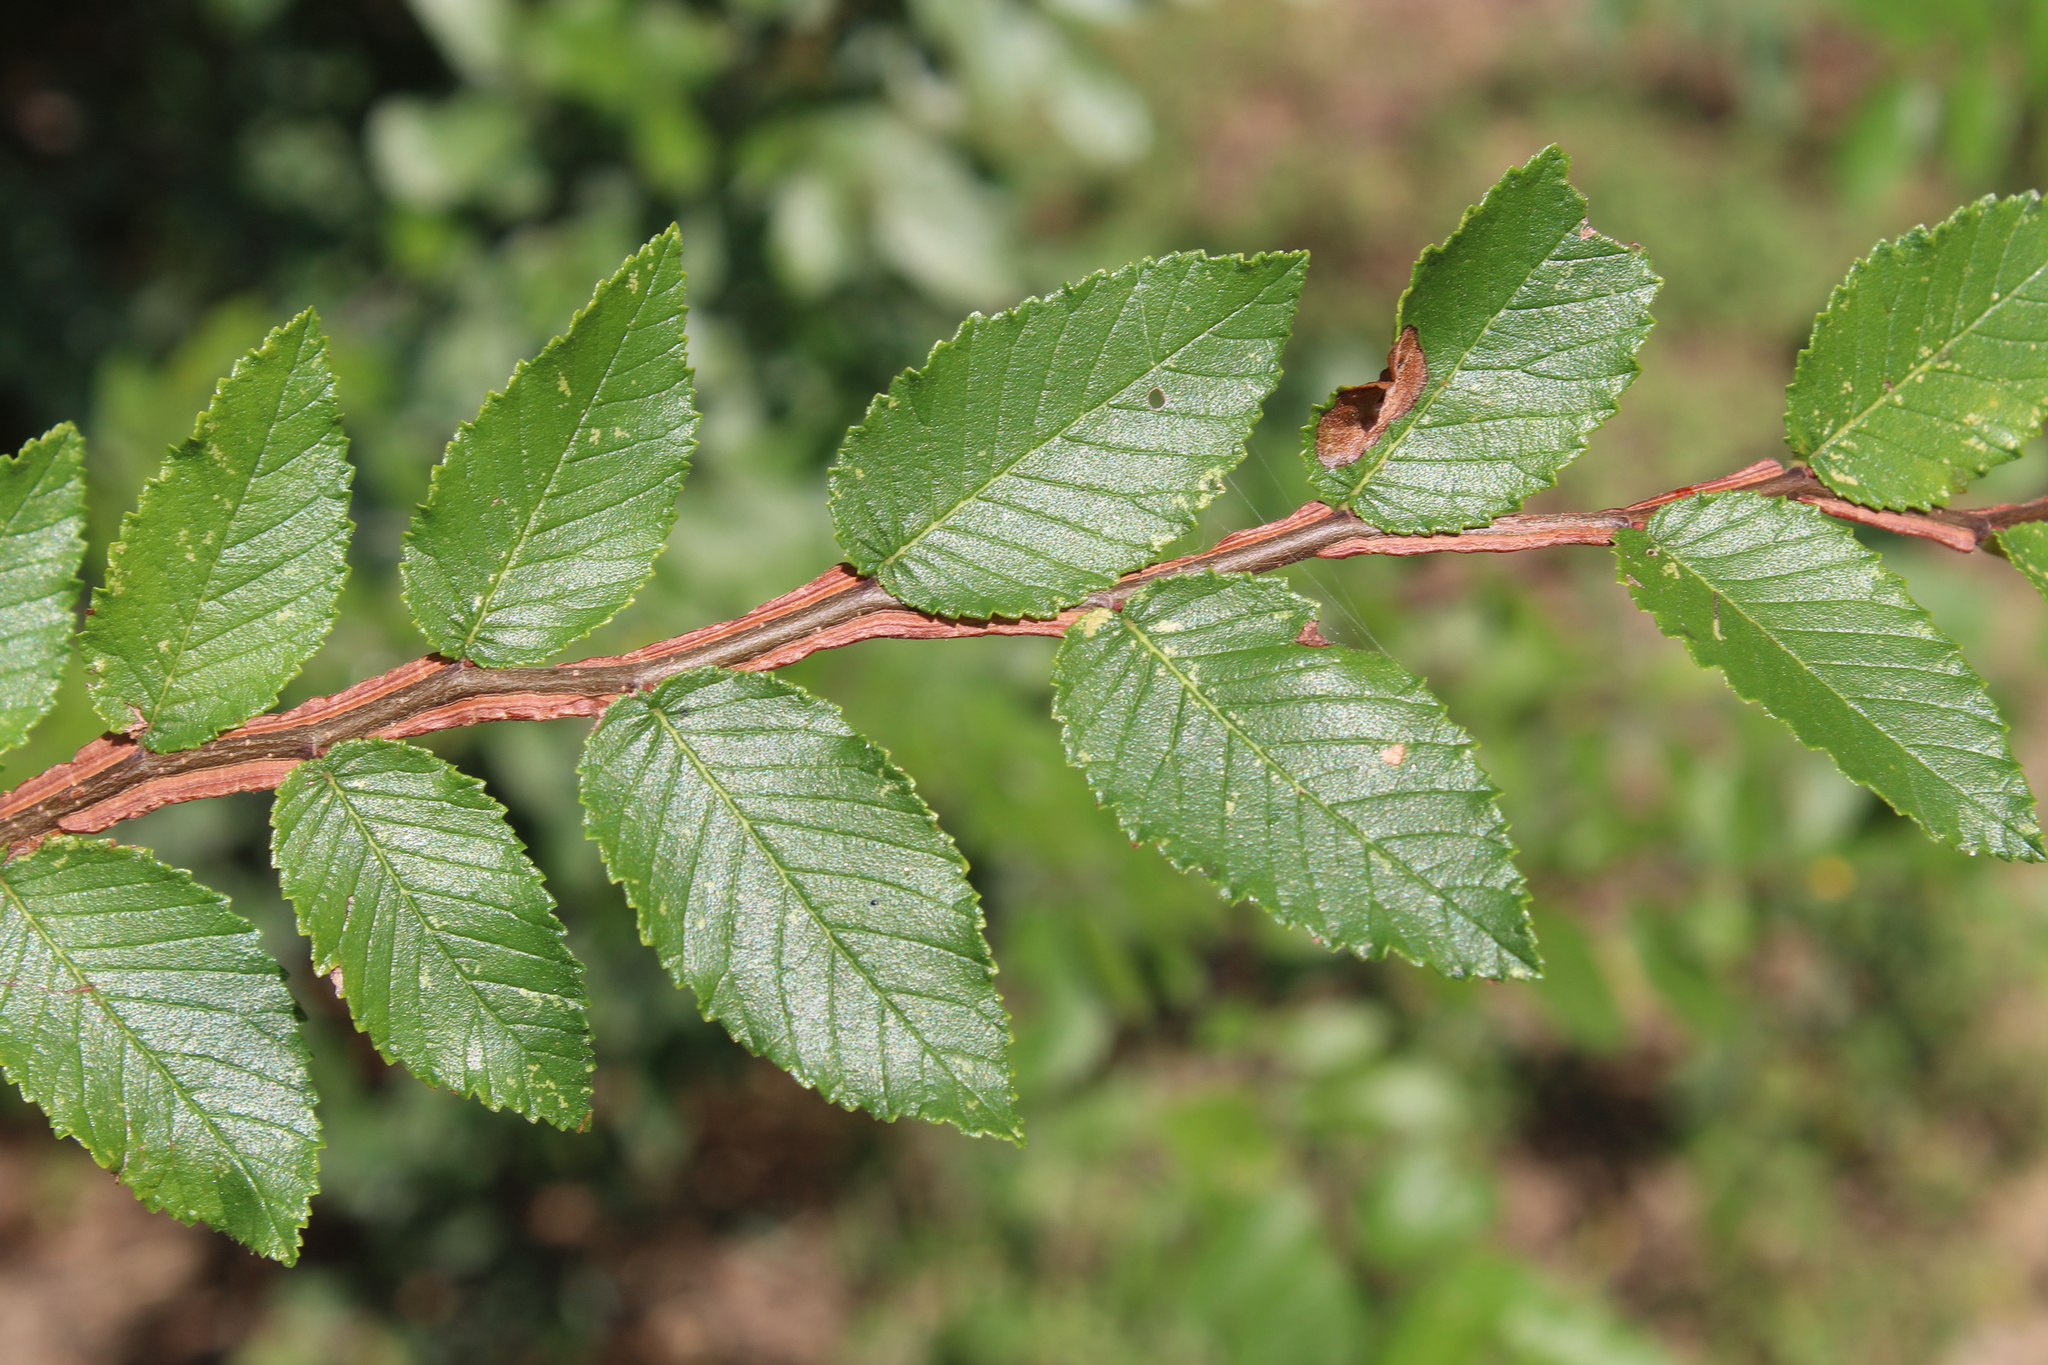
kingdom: Plantae
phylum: Tracheophyta
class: Magnoliopsida
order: Rosales
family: Ulmaceae
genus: Ulmus
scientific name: Ulmus crassifolia
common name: Basket elm
